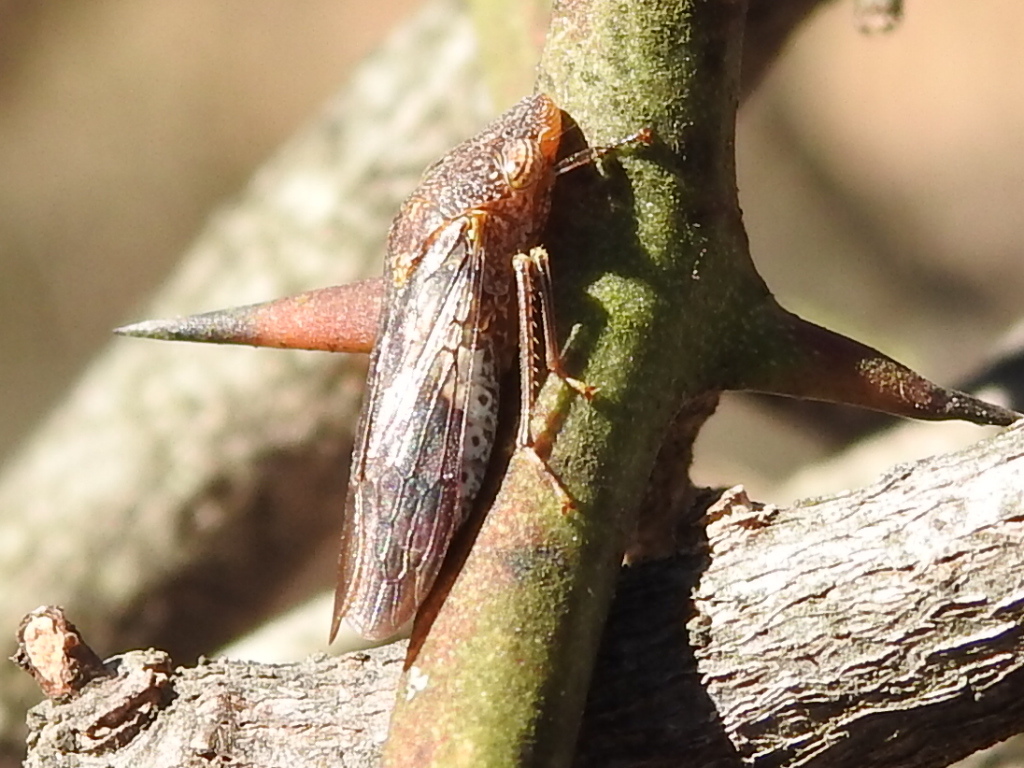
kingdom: Animalia
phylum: Arthropoda
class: Insecta
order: Hemiptera
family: Cicadellidae
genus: Homalodisca
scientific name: Homalodisca vitripennis
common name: Glassy-winged sharpshooter
